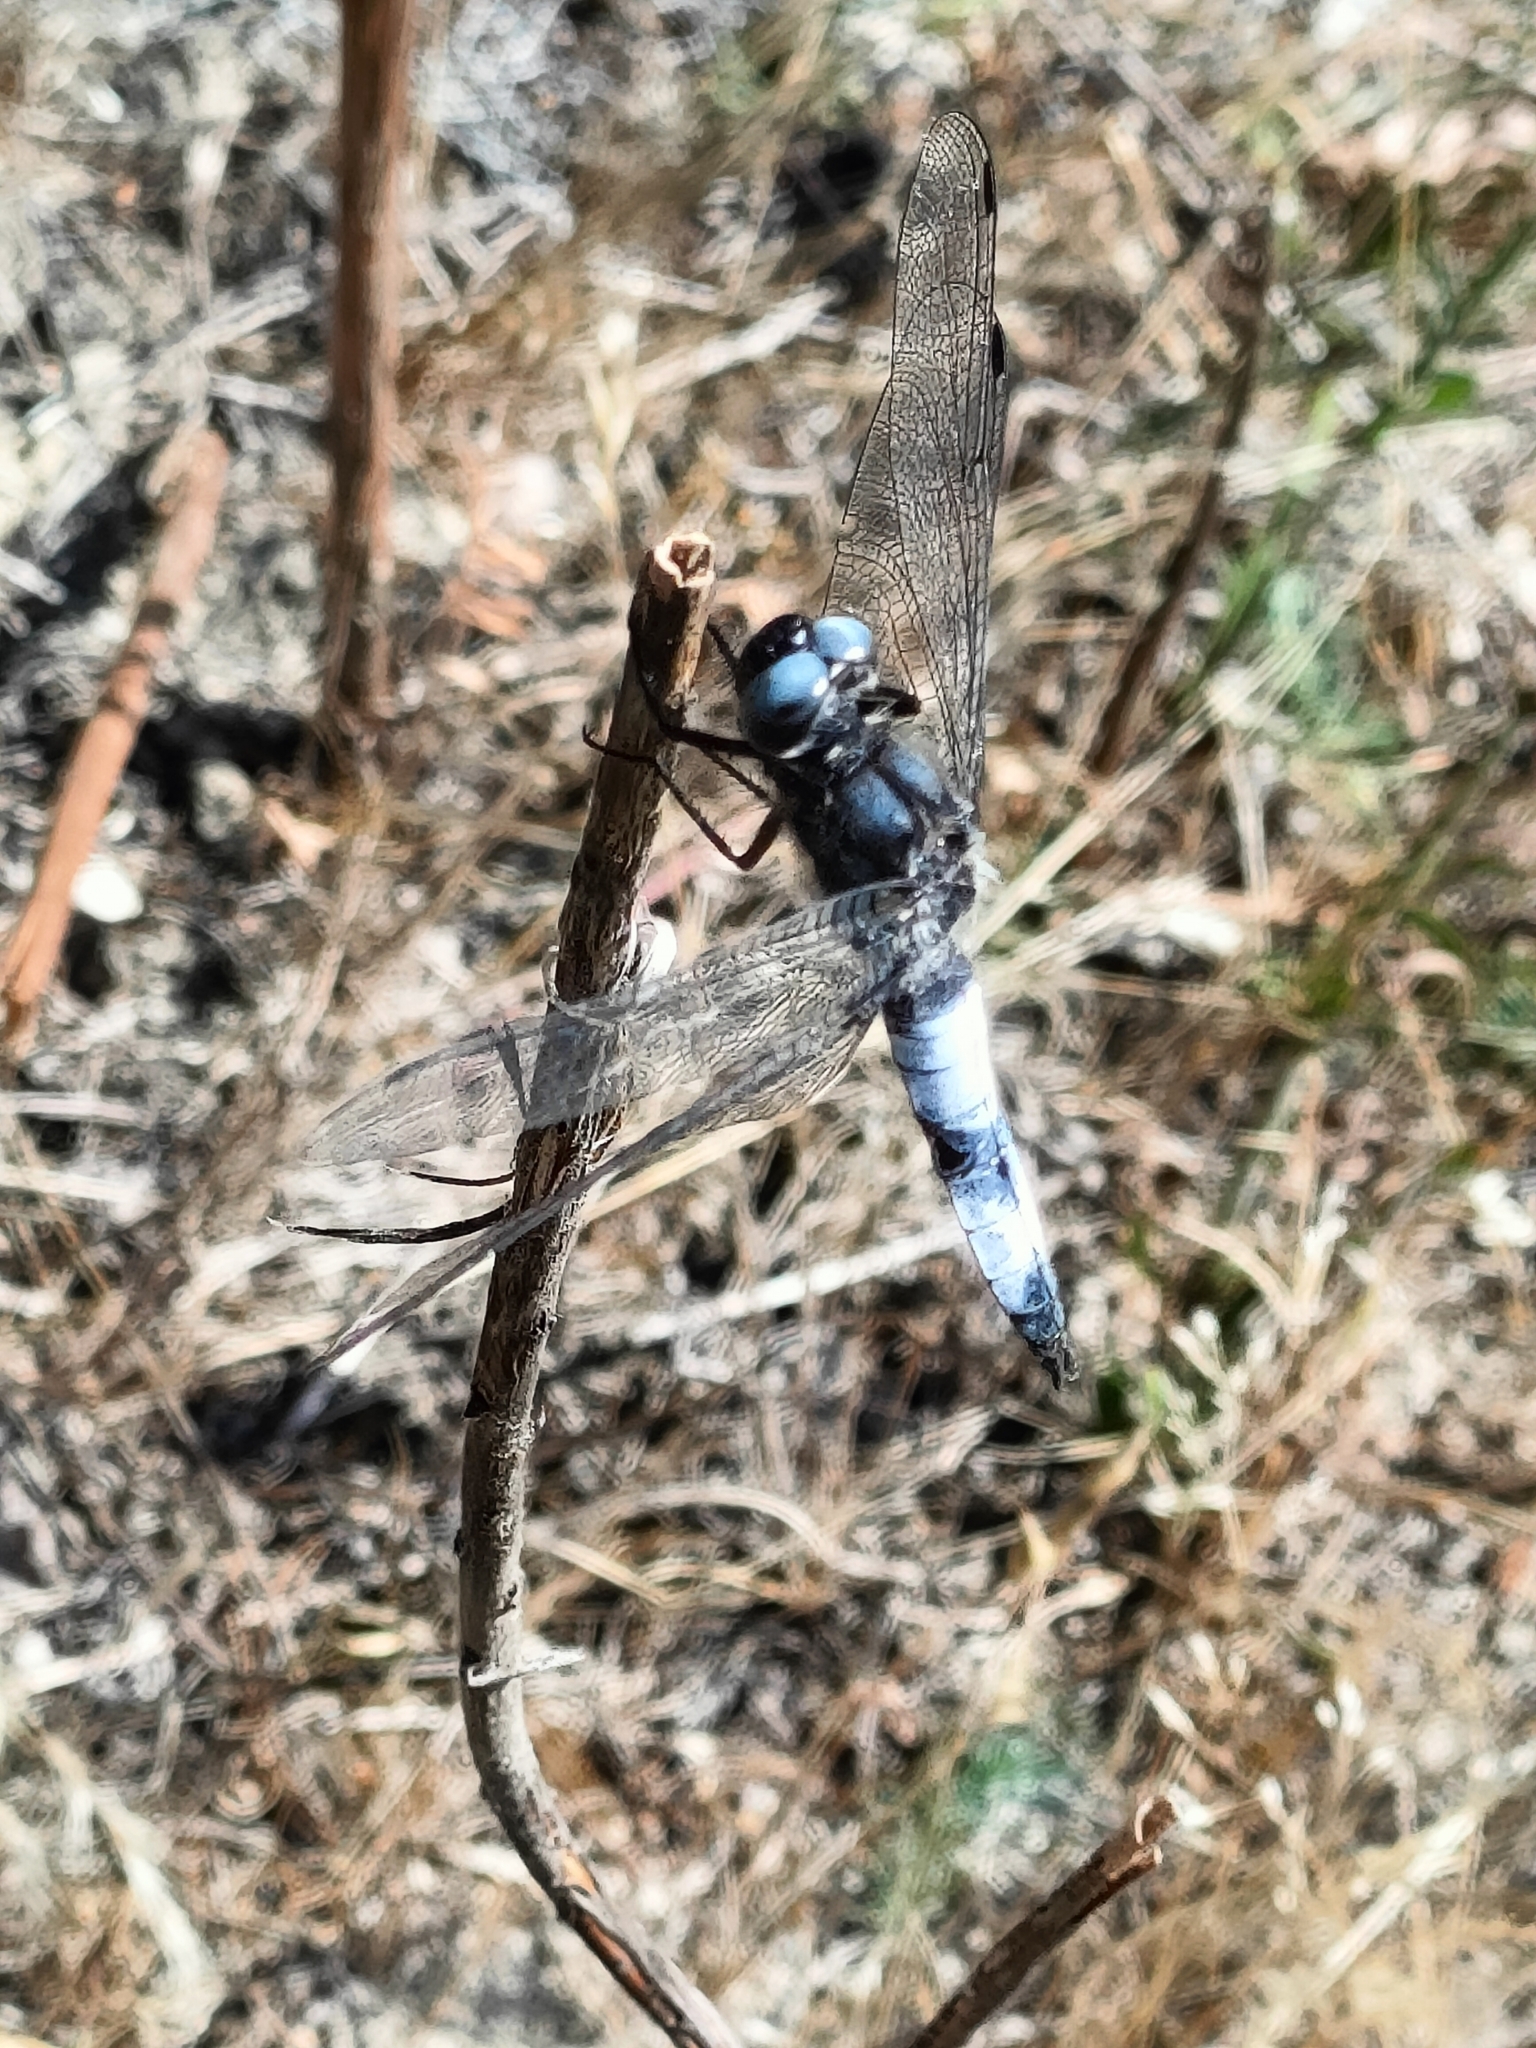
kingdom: Animalia
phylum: Arthropoda
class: Insecta
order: Odonata
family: Libellulidae
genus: Libellula
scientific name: Libellula fulva
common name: Blue chaser
